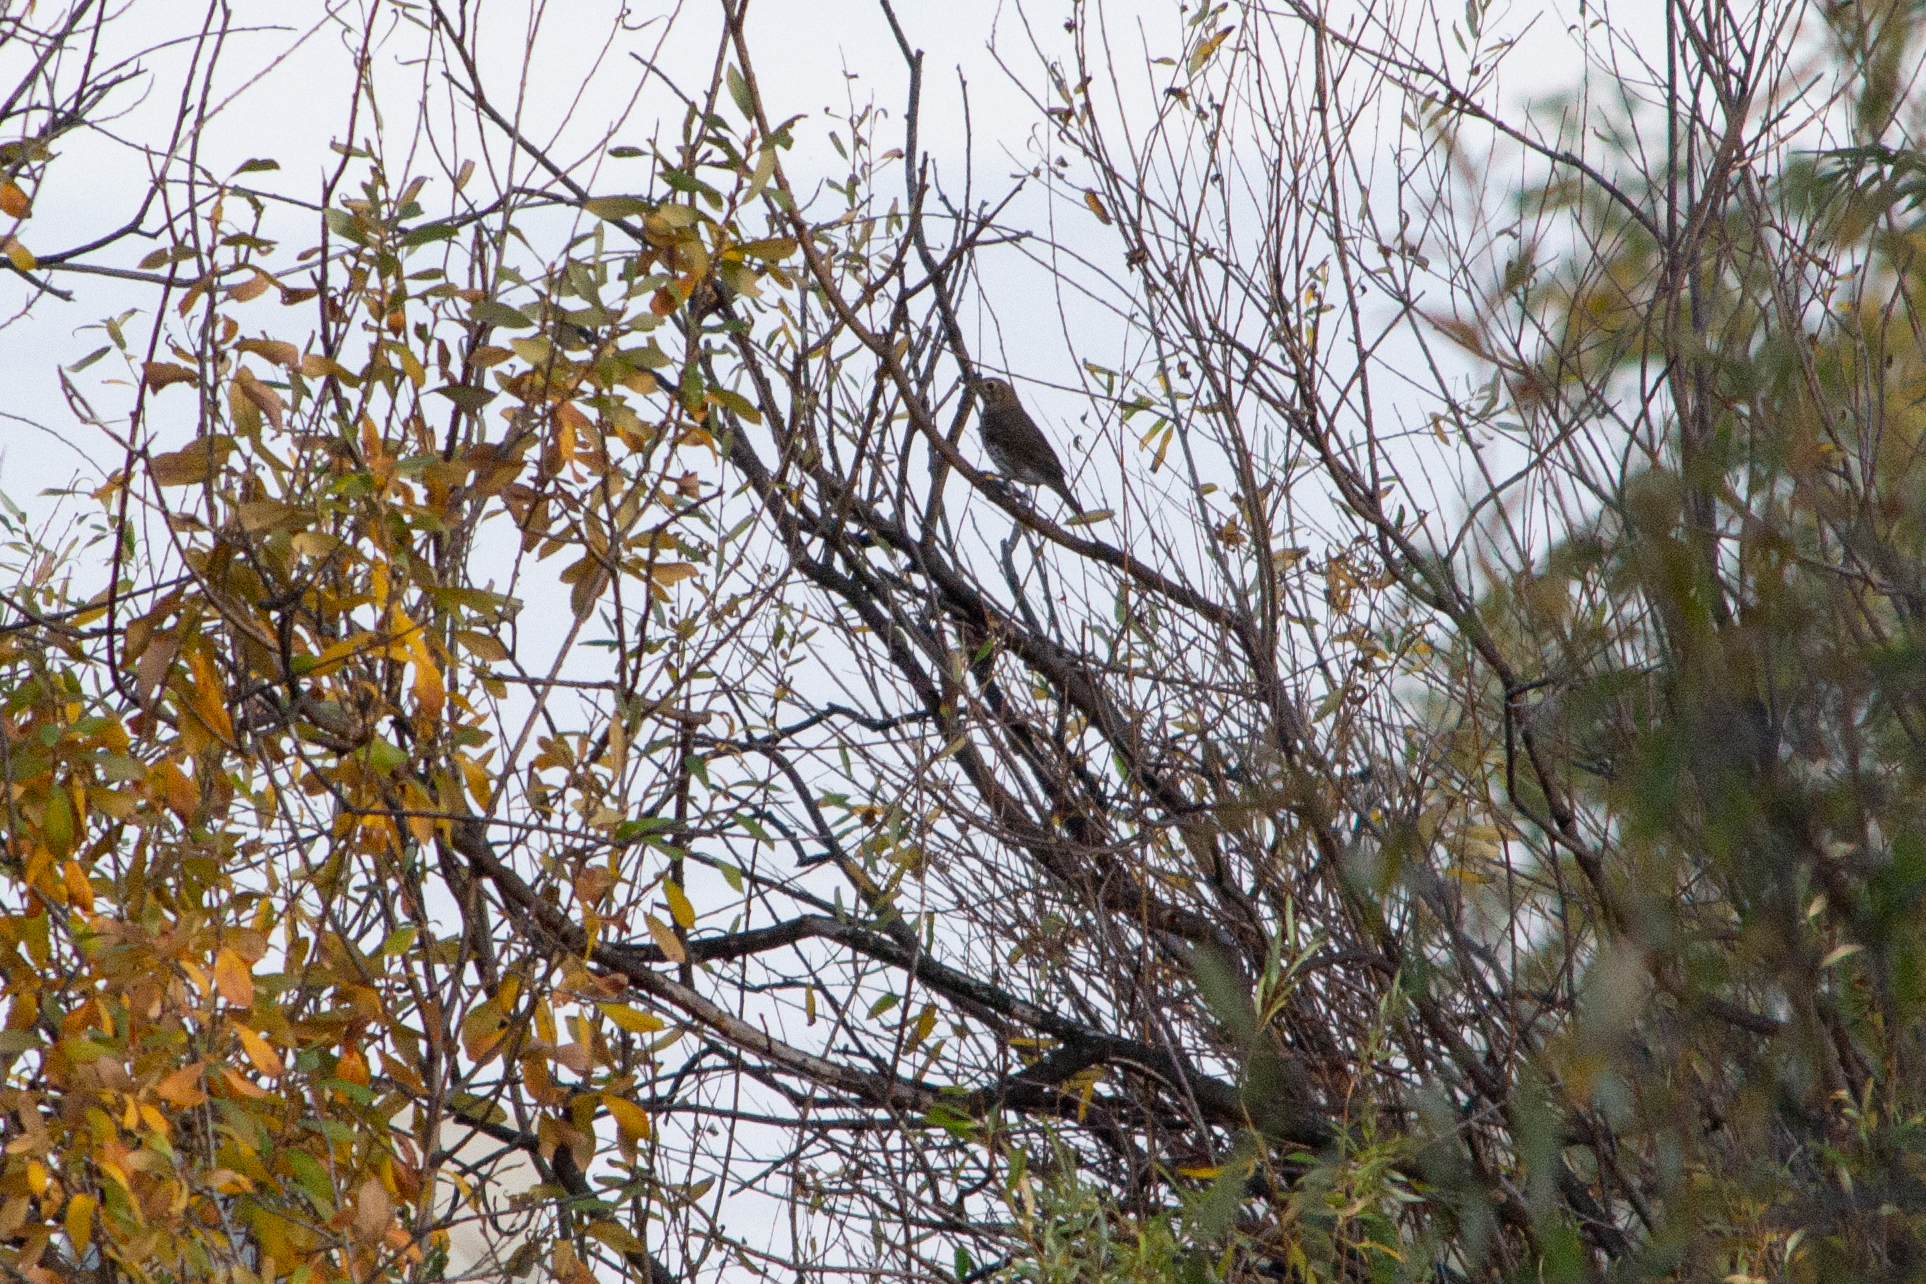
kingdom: Animalia
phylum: Chordata
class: Aves
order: Passeriformes
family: Turdidae
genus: Turdus
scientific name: Turdus philomelos
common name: Song thrush
